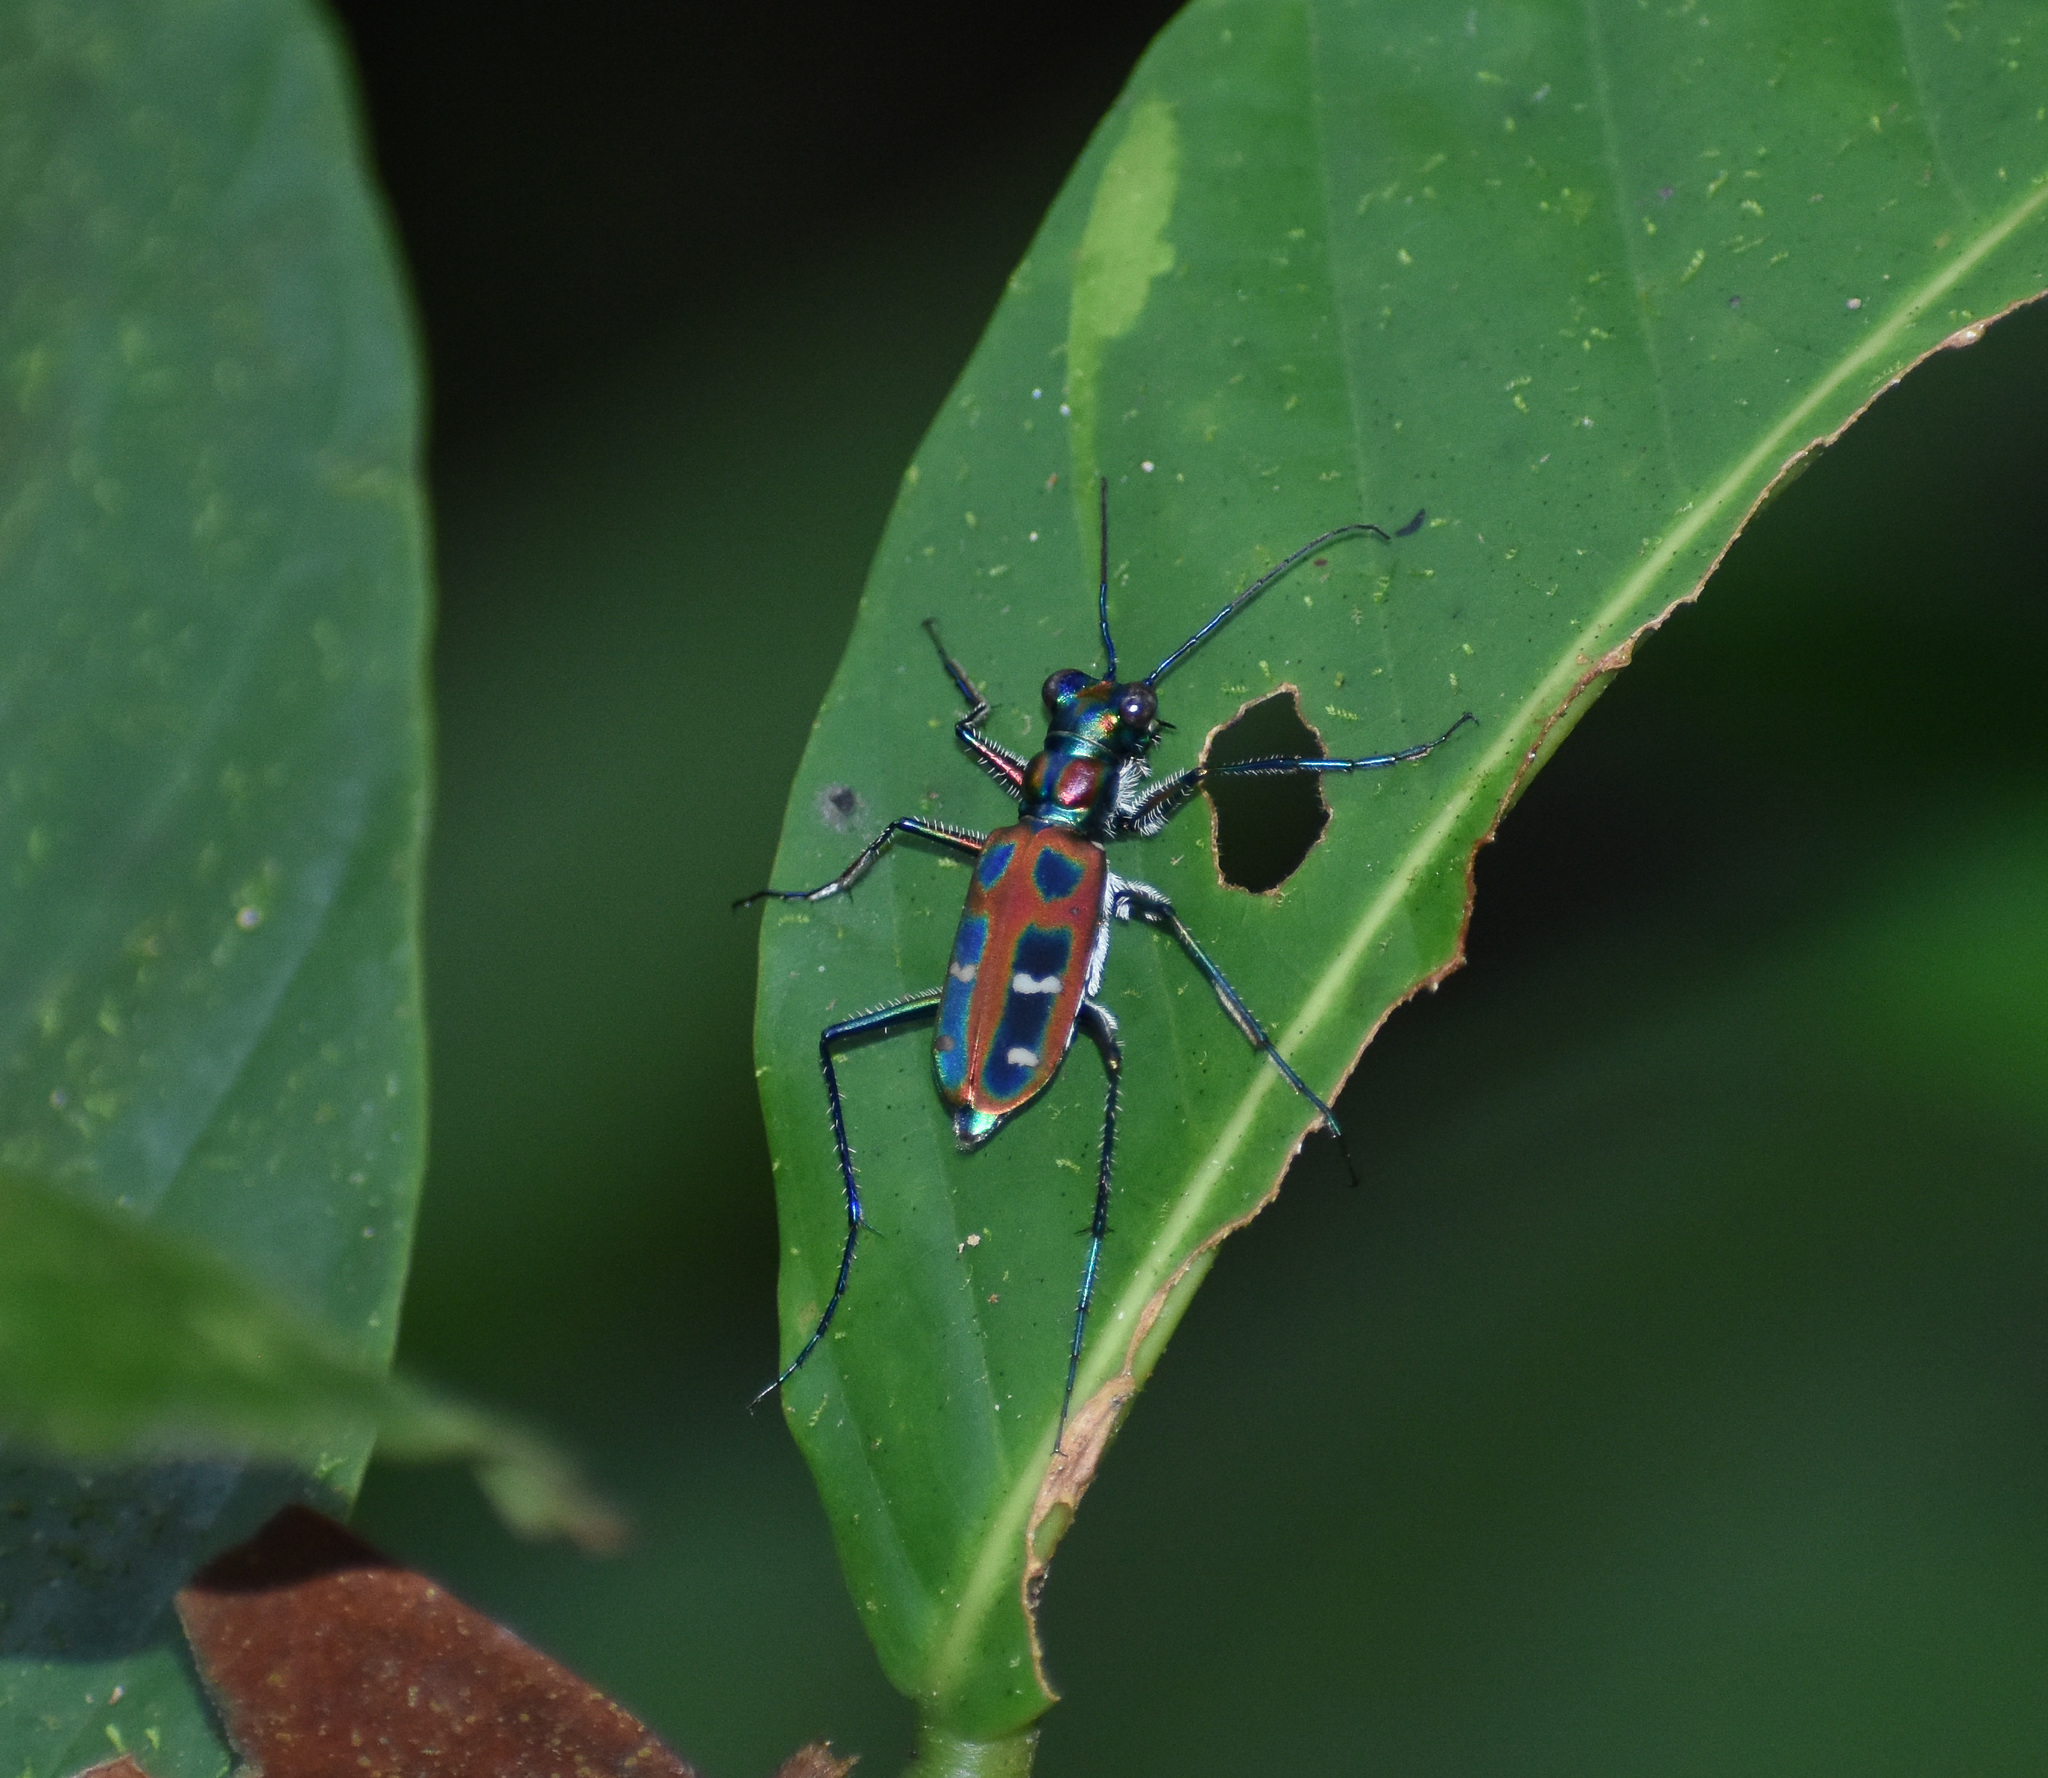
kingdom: Animalia
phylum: Arthropoda
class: Insecta
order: Coleoptera
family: Carabidae
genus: Cicindela
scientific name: Cicindela barmanica
